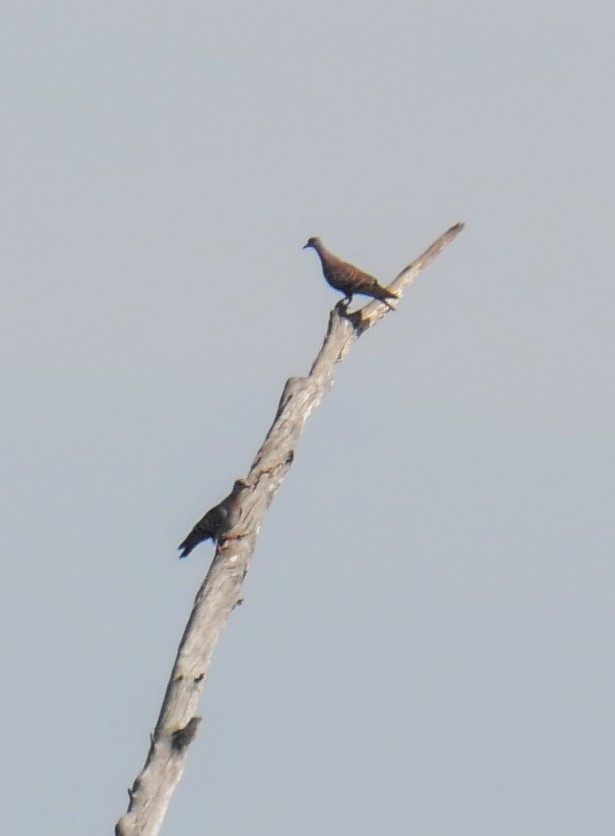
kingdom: Animalia
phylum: Chordata
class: Aves
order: Columbiformes
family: Columbidae
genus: Columba
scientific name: Columba guinea
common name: Speckled pigeon
